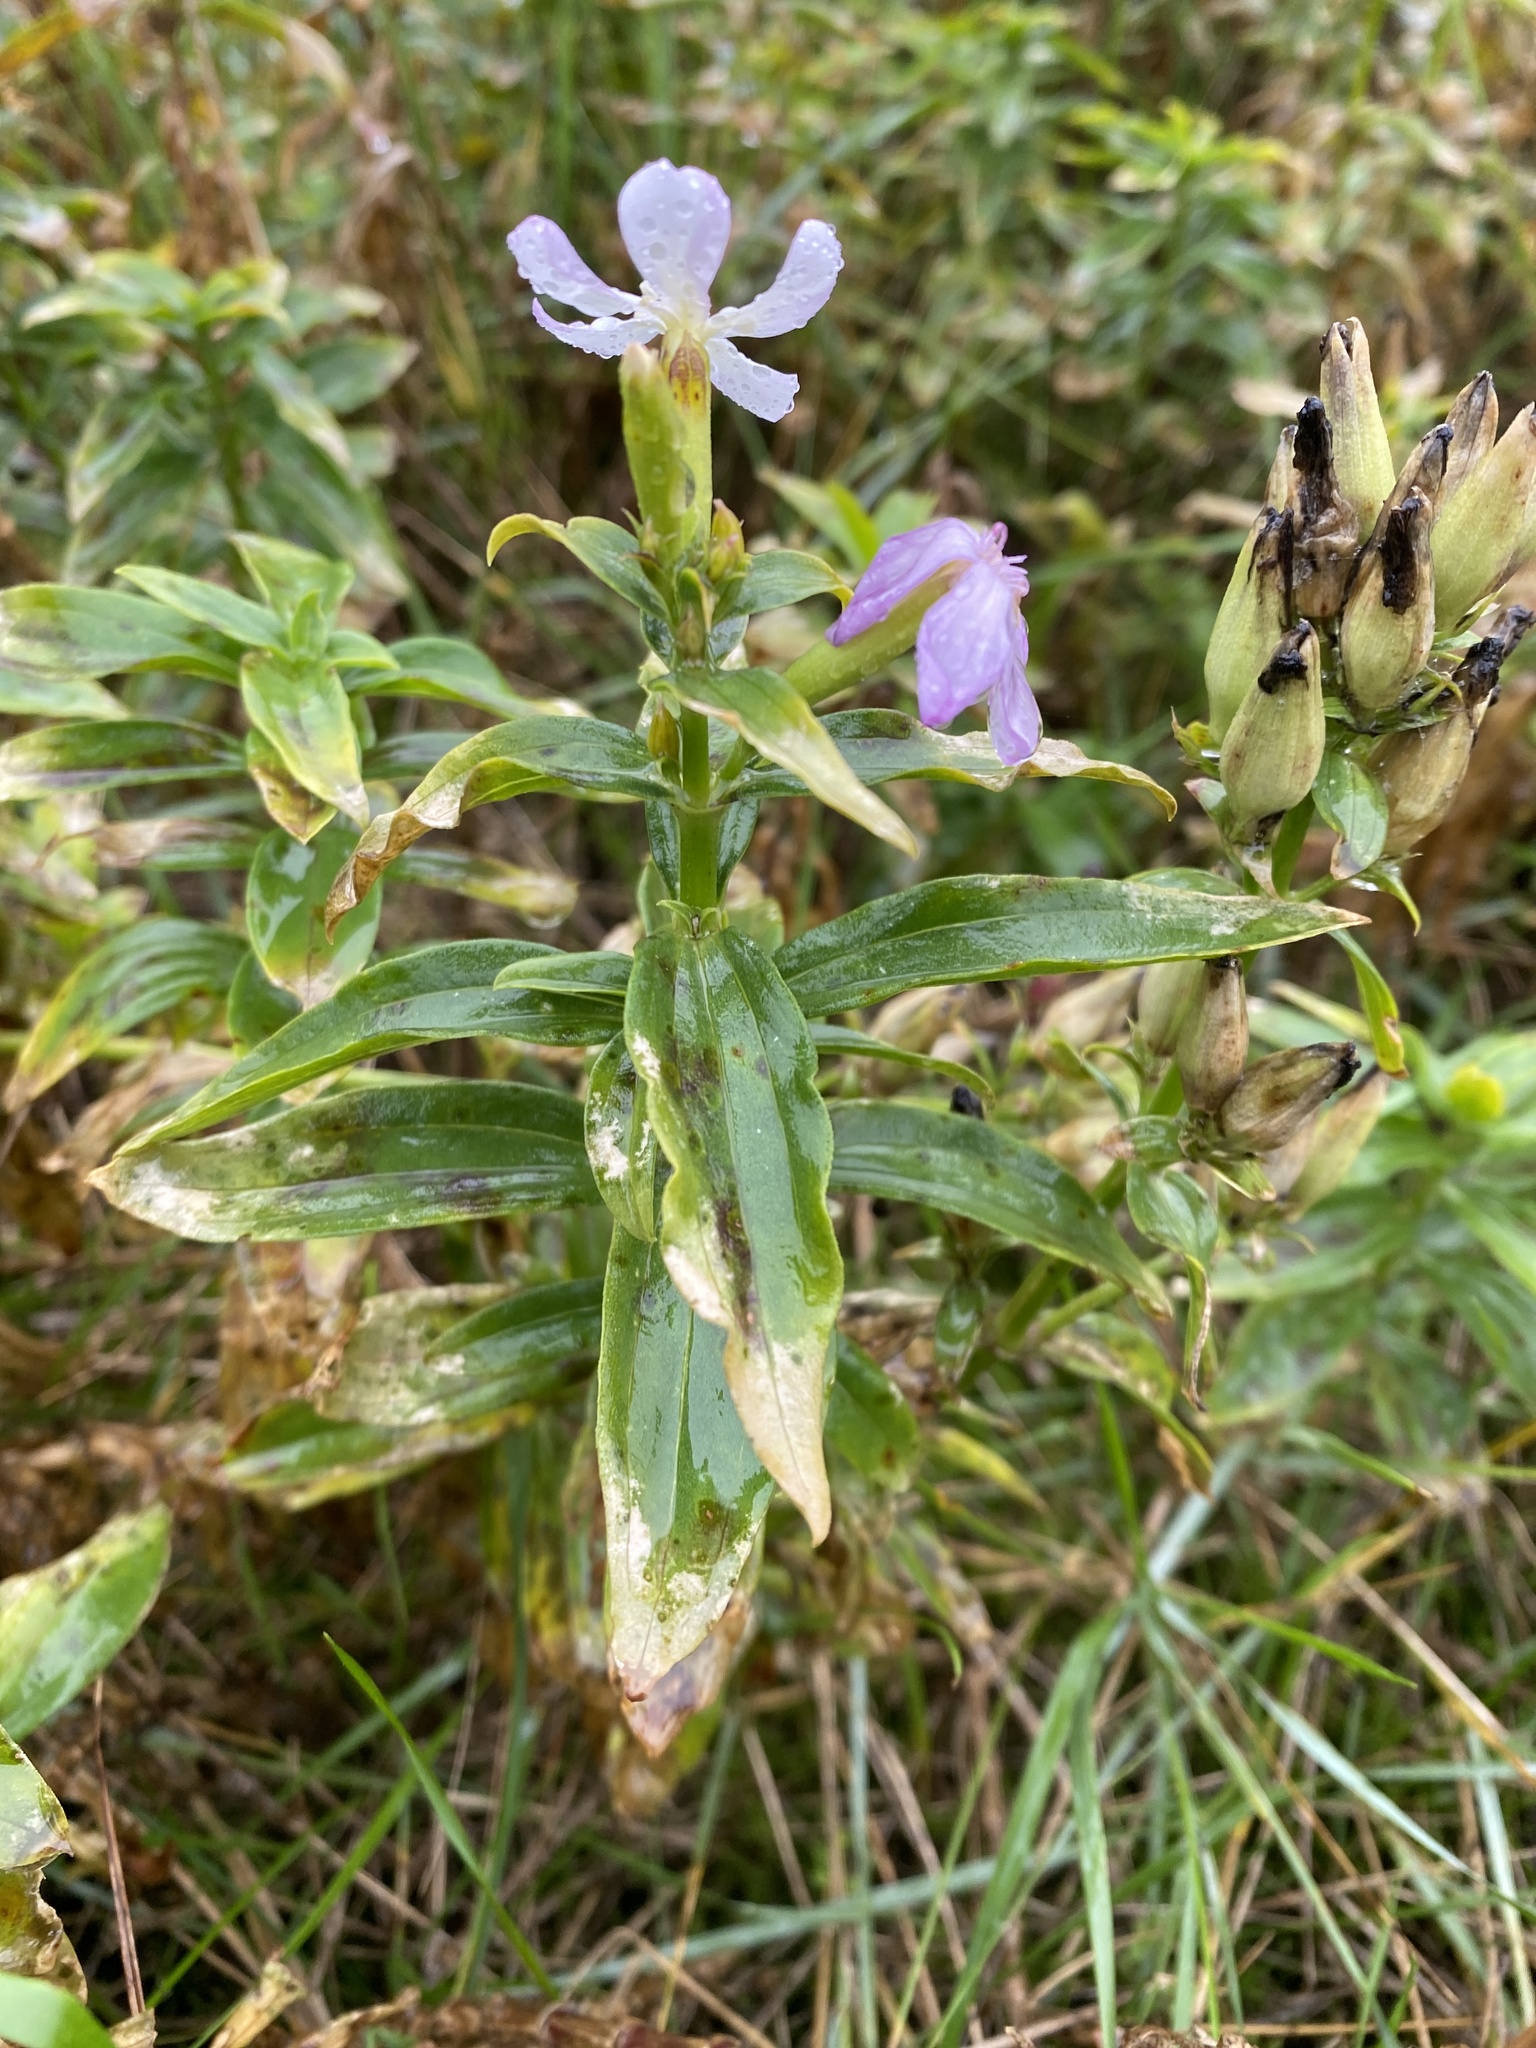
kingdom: Plantae
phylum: Tracheophyta
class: Magnoliopsida
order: Caryophyllales
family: Caryophyllaceae
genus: Saponaria
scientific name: Saponaria officinalis
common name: Soapwort
